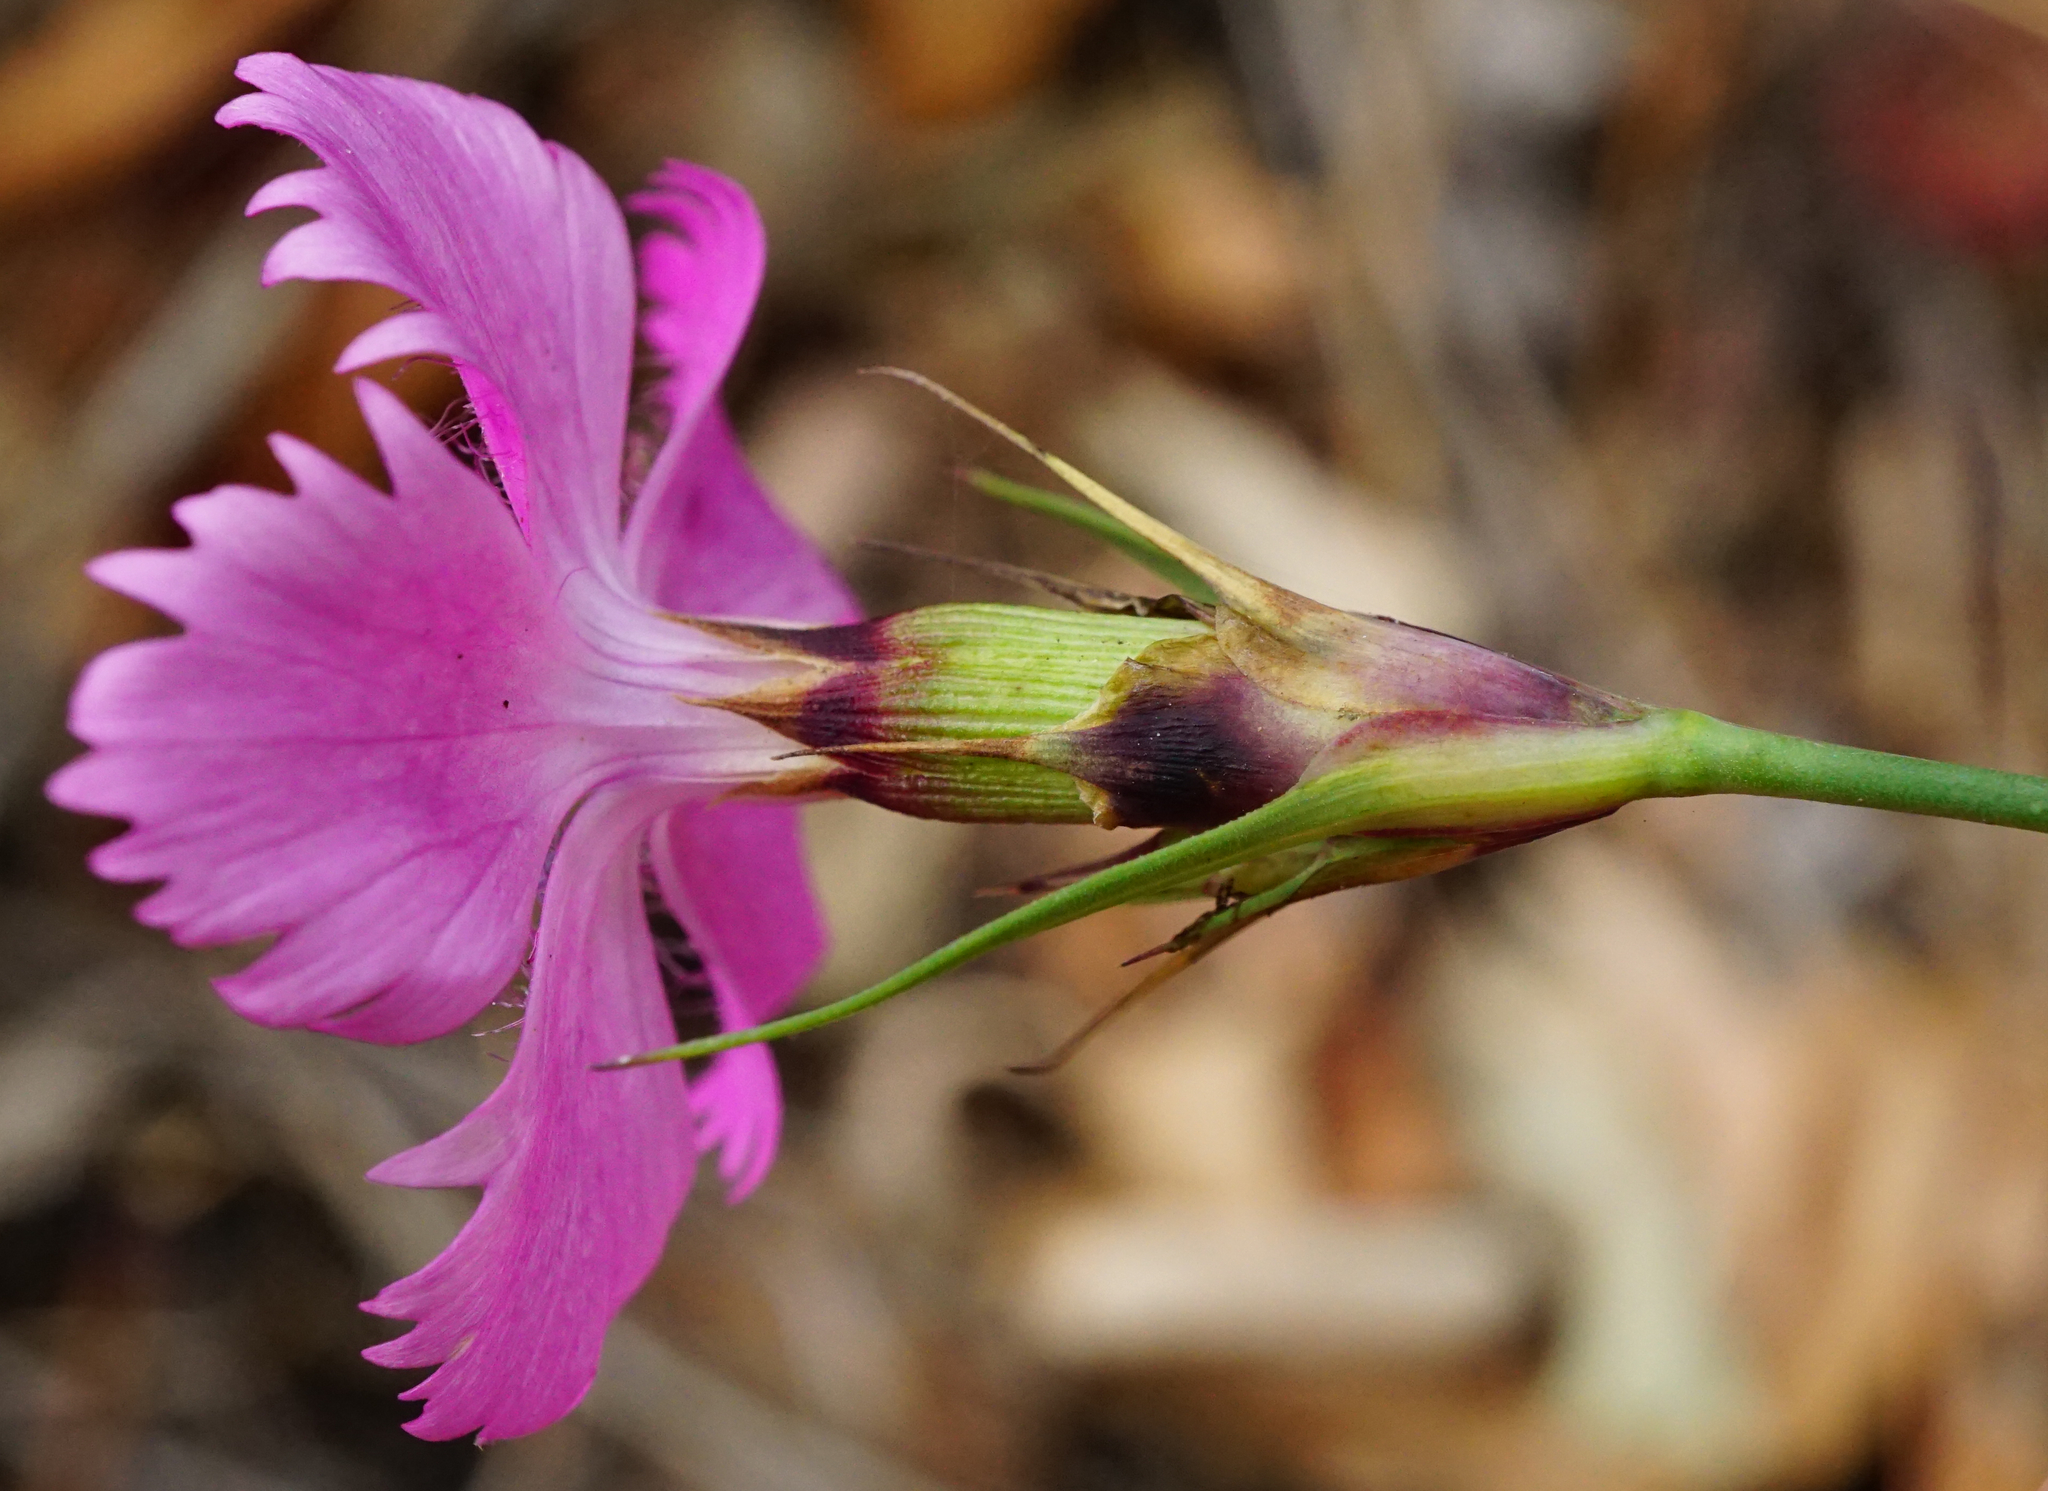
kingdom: Plantae
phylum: Tracheophyta
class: Magnoliopsida
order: Caryophyllales
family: Caryophyllaceae
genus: Dianthus
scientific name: Dianthus carthusianorum
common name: Carthusian pink
